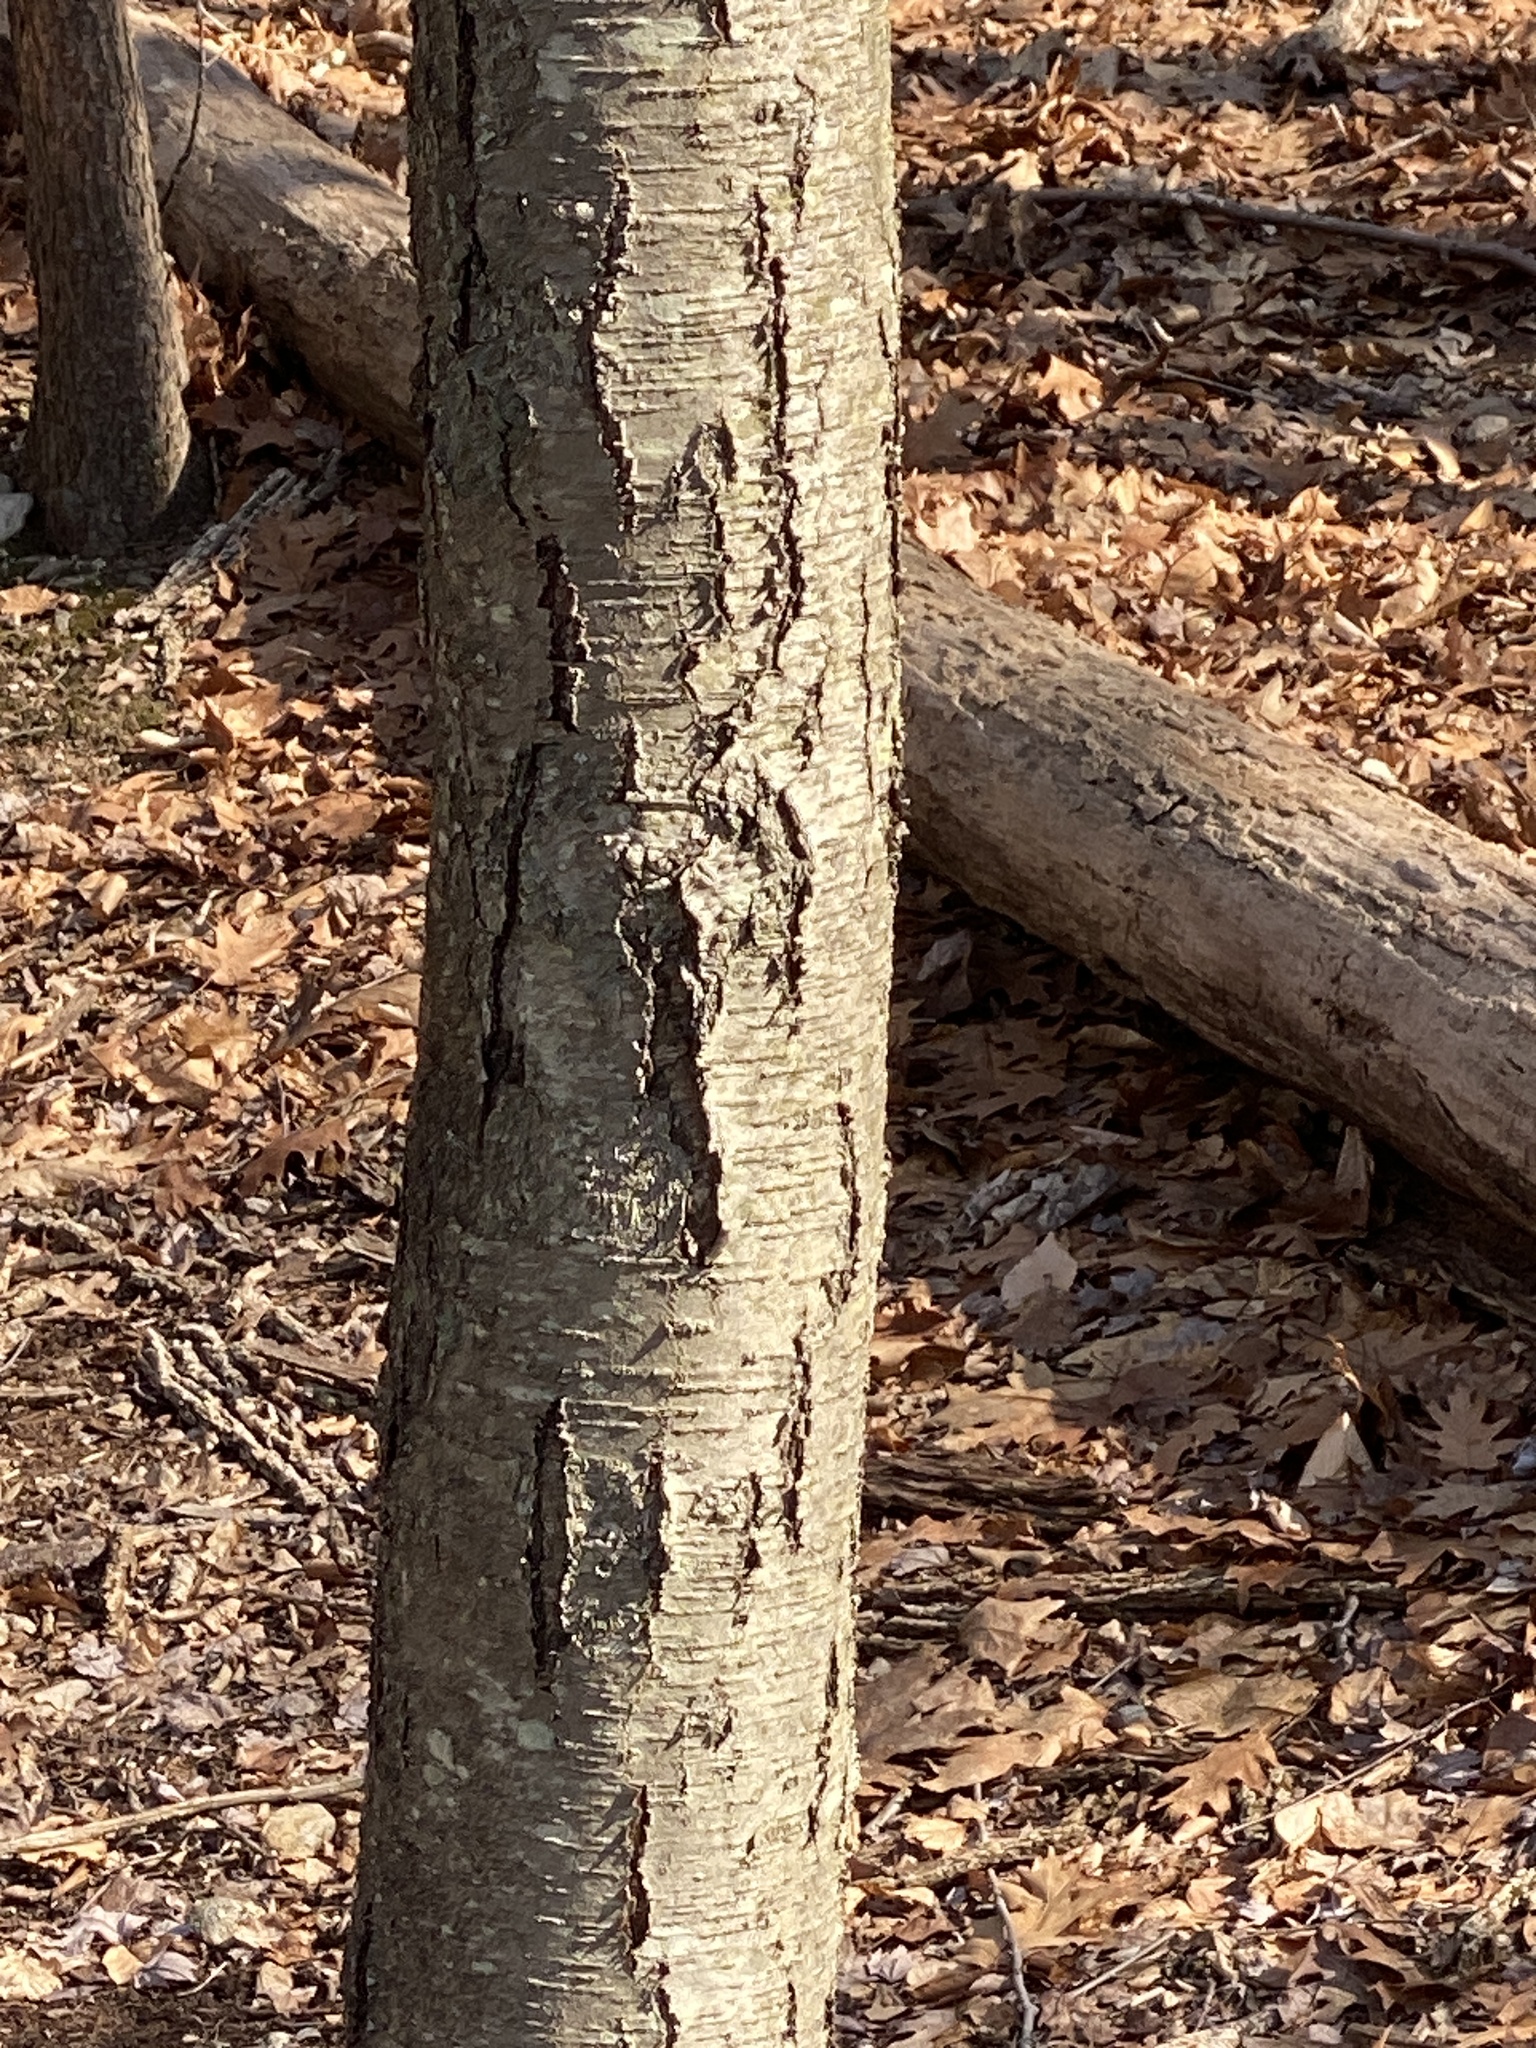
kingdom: Plantae
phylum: Tracheophyta
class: Magnoliopsida
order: Fagales
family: Betulaceae
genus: Betula
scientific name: Betula lenta
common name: Black birch
